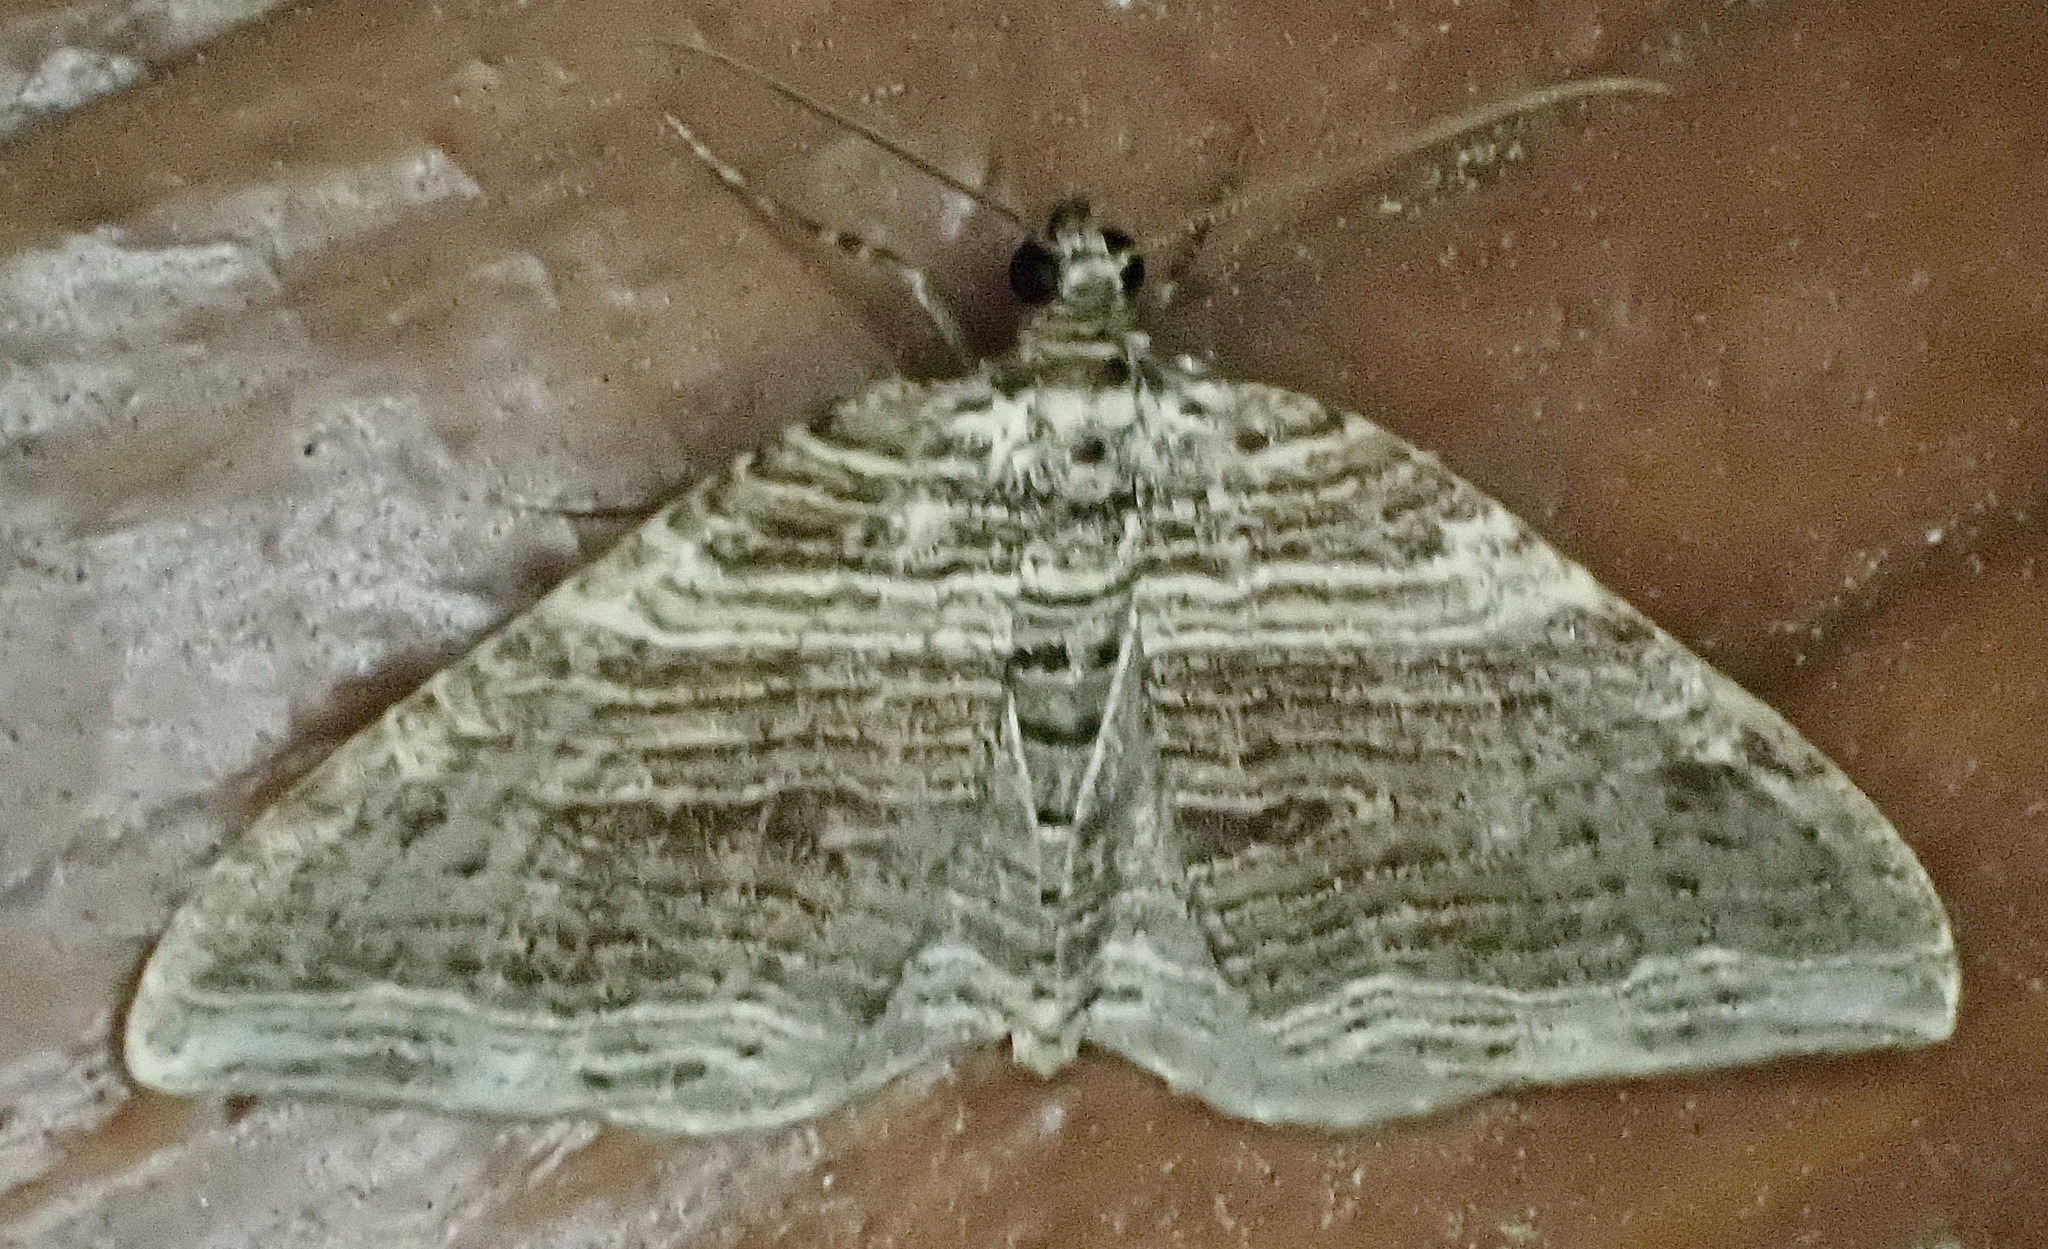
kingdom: Animalia
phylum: Arthropoda
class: Insecta
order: Lepidoptera
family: Geometridae
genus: Anticlea
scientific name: Anticlea multiferata
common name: Many-lined carpet
